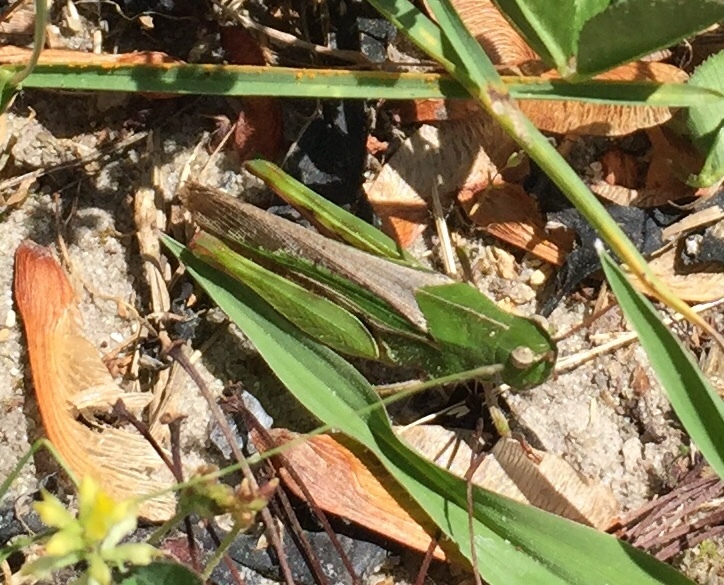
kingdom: Animalia
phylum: Arthropoda
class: Insecta
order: Orthoptera
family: Acrididae
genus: Chortophaga
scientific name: Chortophaga viridifasciata
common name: Green-striped grasshopper
